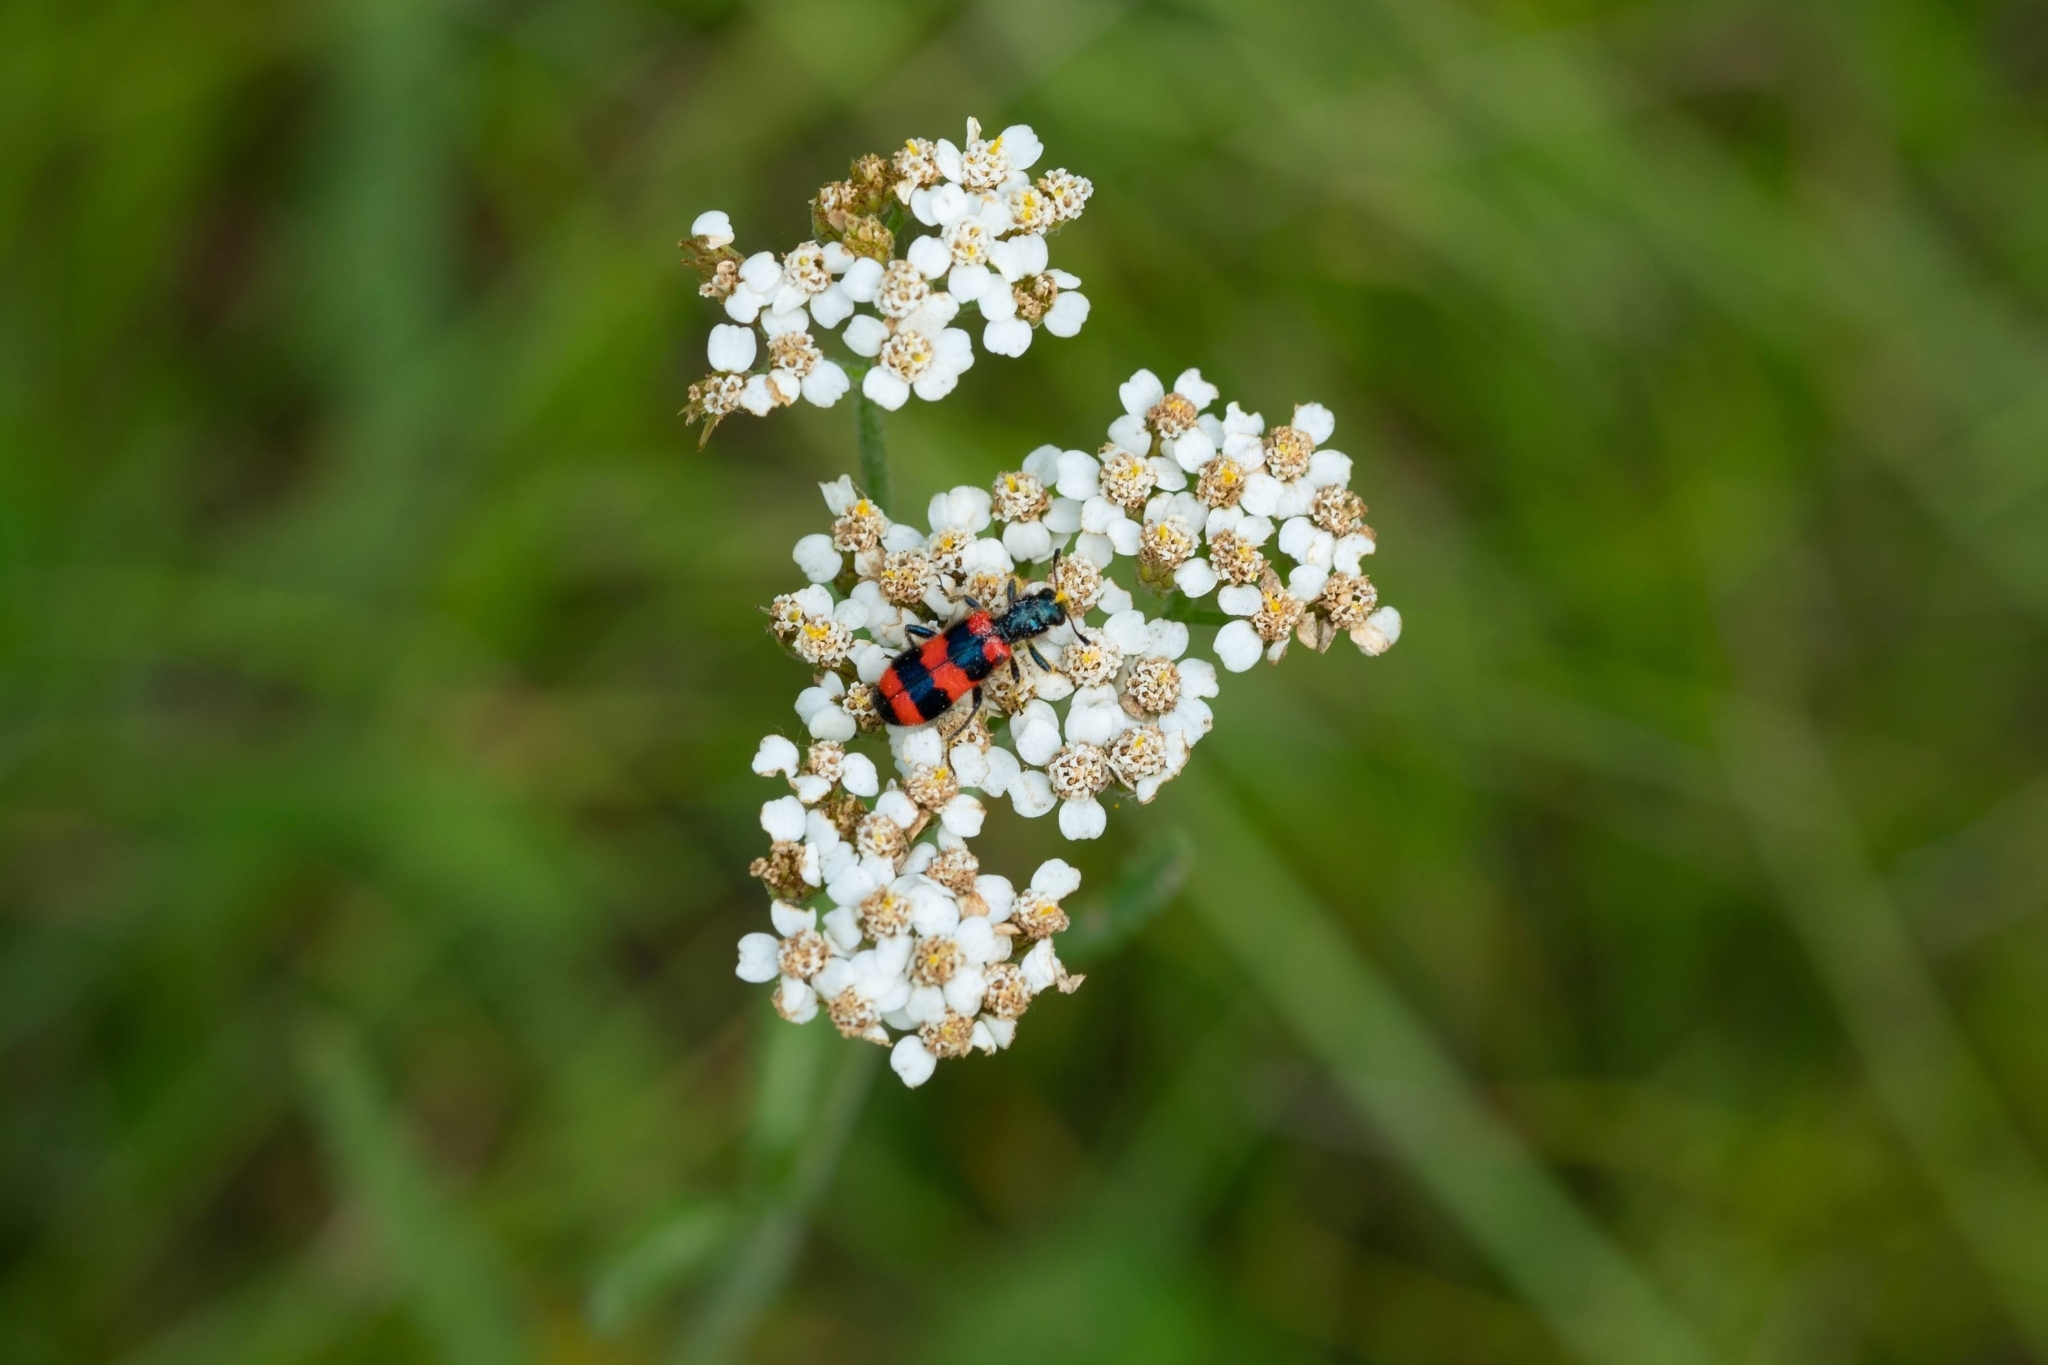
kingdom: Animalia
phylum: Arthropoda
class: Insecta
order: Coleoptera
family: Cleridae
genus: Trichodes
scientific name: Trichodes apiarius
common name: Bee-eating beetle
